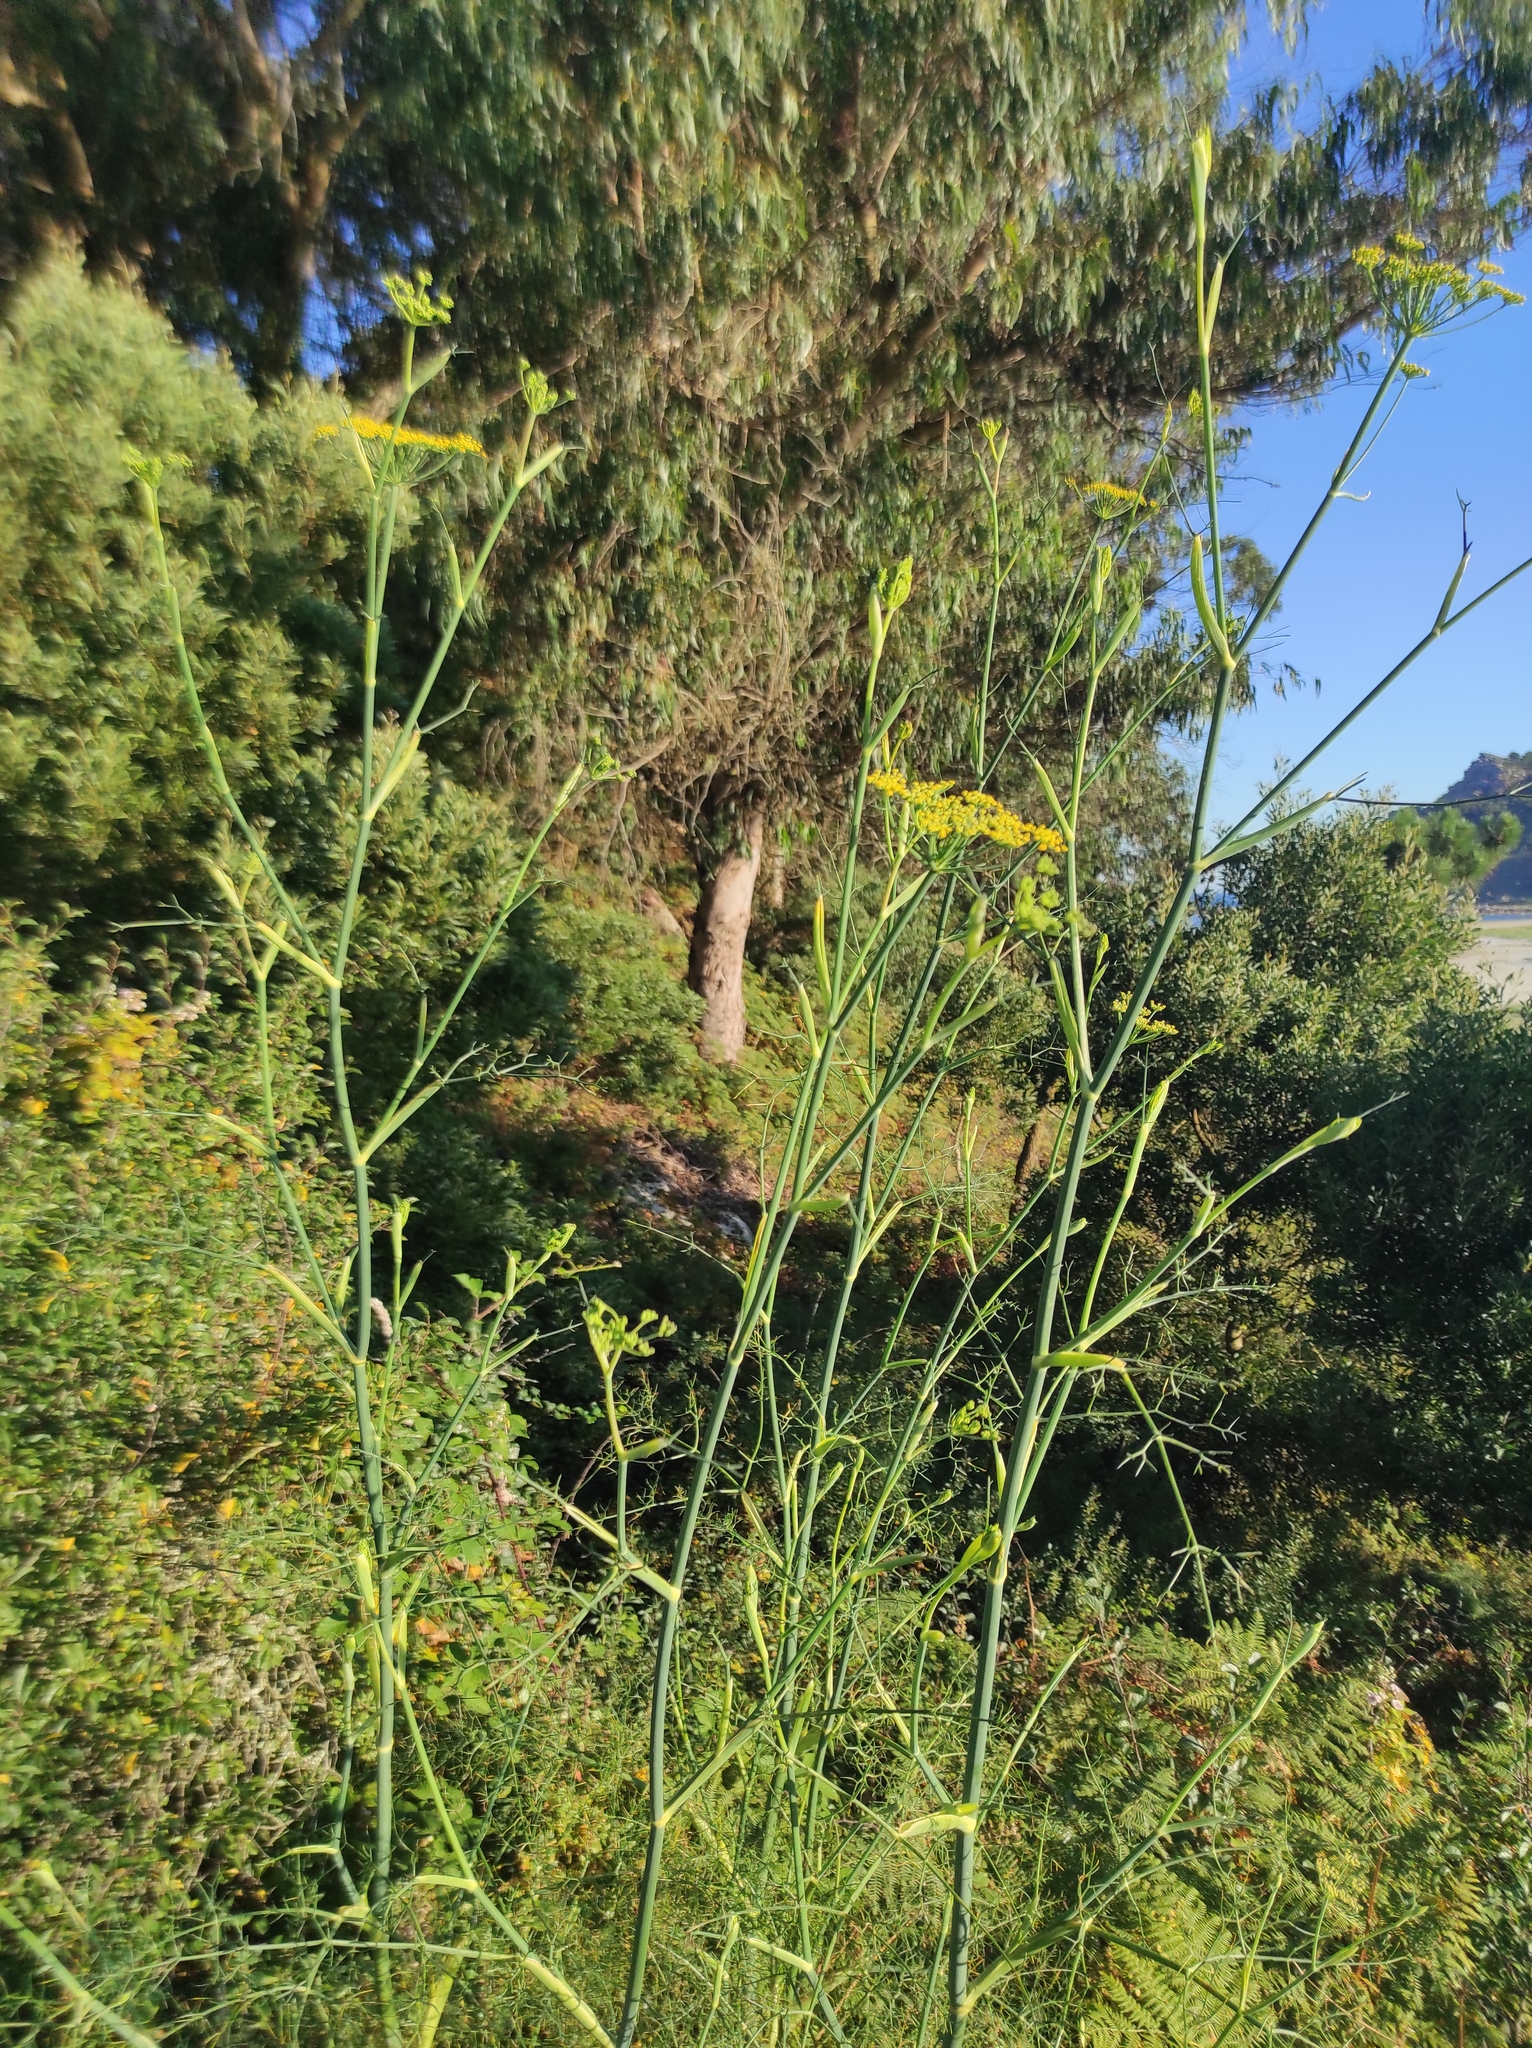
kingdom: Plantae
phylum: Tracheophyta
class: Magnoliopsida
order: Apiales
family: Apiaceae
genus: Foeniculum
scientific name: Foeniculum vulgare
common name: Fennel
